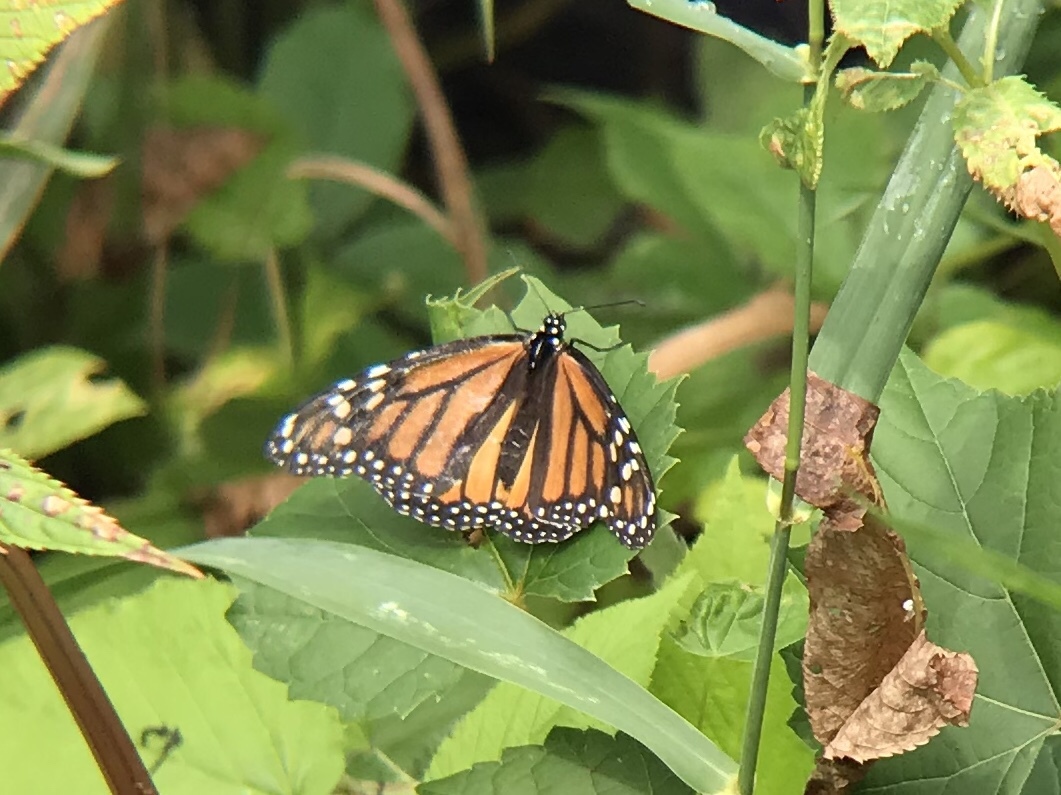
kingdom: Animalia
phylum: Arthropoda
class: Insecta
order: Lepidoptera
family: Nymphalidae
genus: Danaus
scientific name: Danaus plexippus
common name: Monarch
